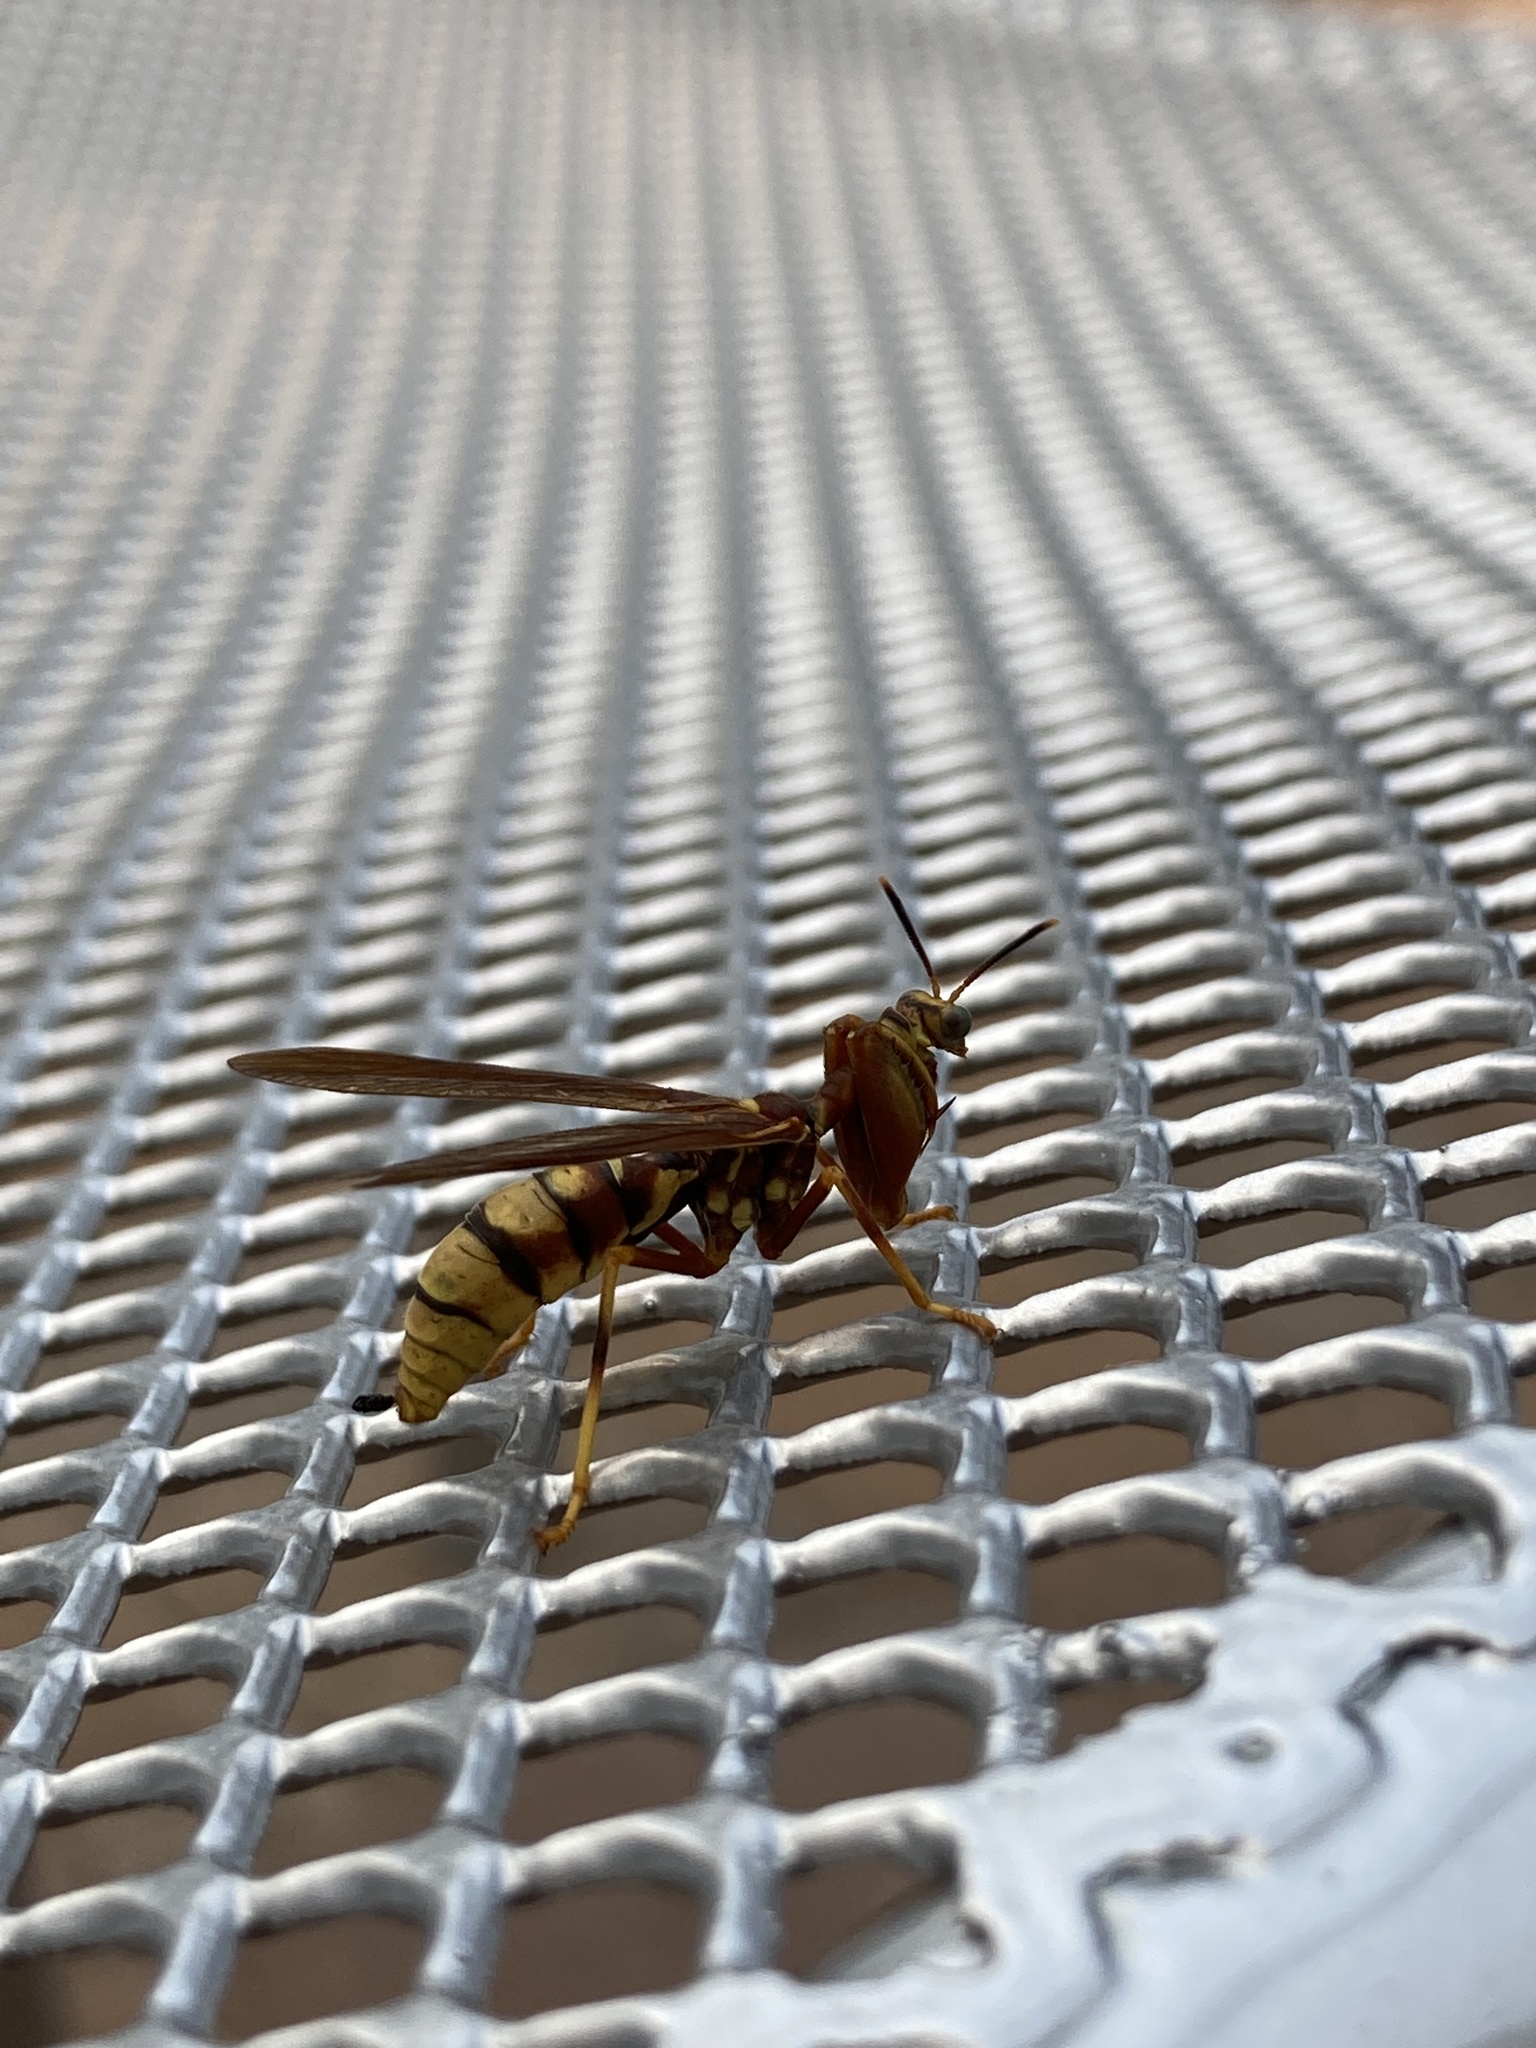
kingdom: Animalia
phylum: Arthropoda
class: Insecta
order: Neuroptera
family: Mantispidae
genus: Climaciella
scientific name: Climaciella brunnea
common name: Brown wasp mantidfly
